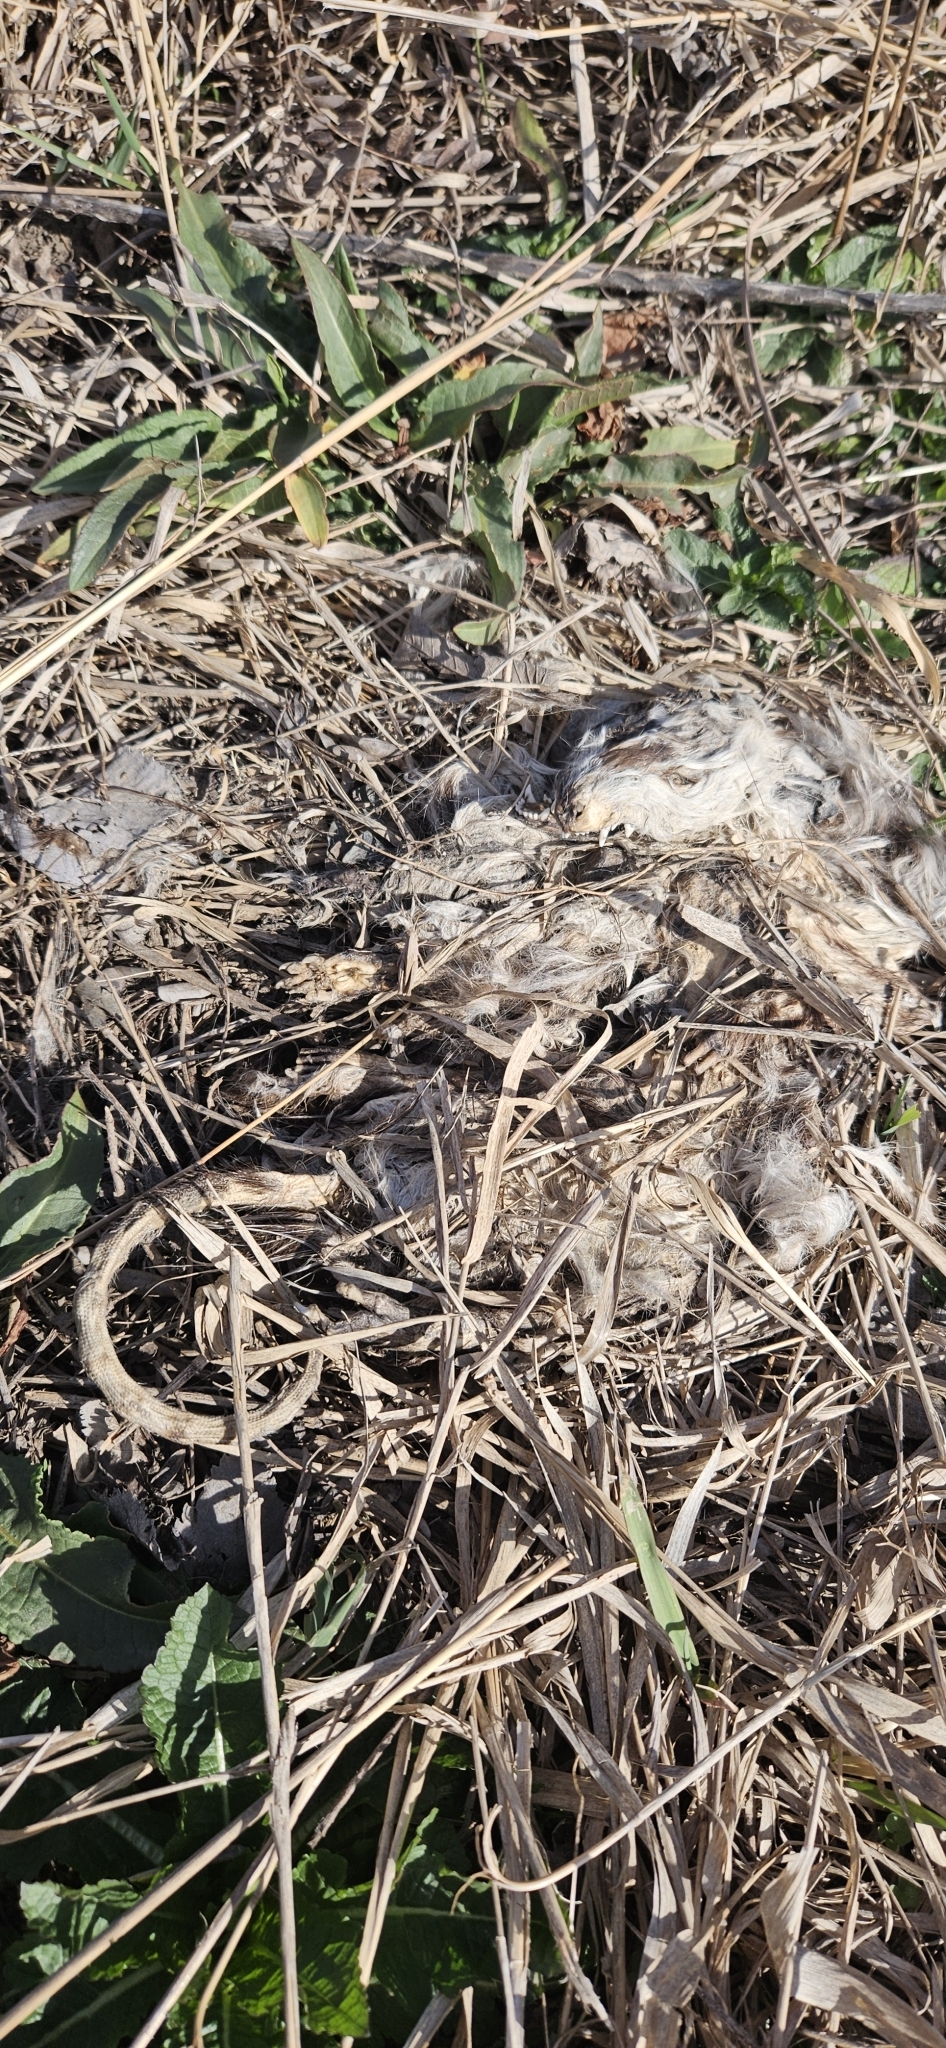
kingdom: Animalia
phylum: Chordata
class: Mammalia
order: Didelphimorphia
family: Didelphidae
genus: Didelphis
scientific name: Didelphis virginiana
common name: Virginia opossum
